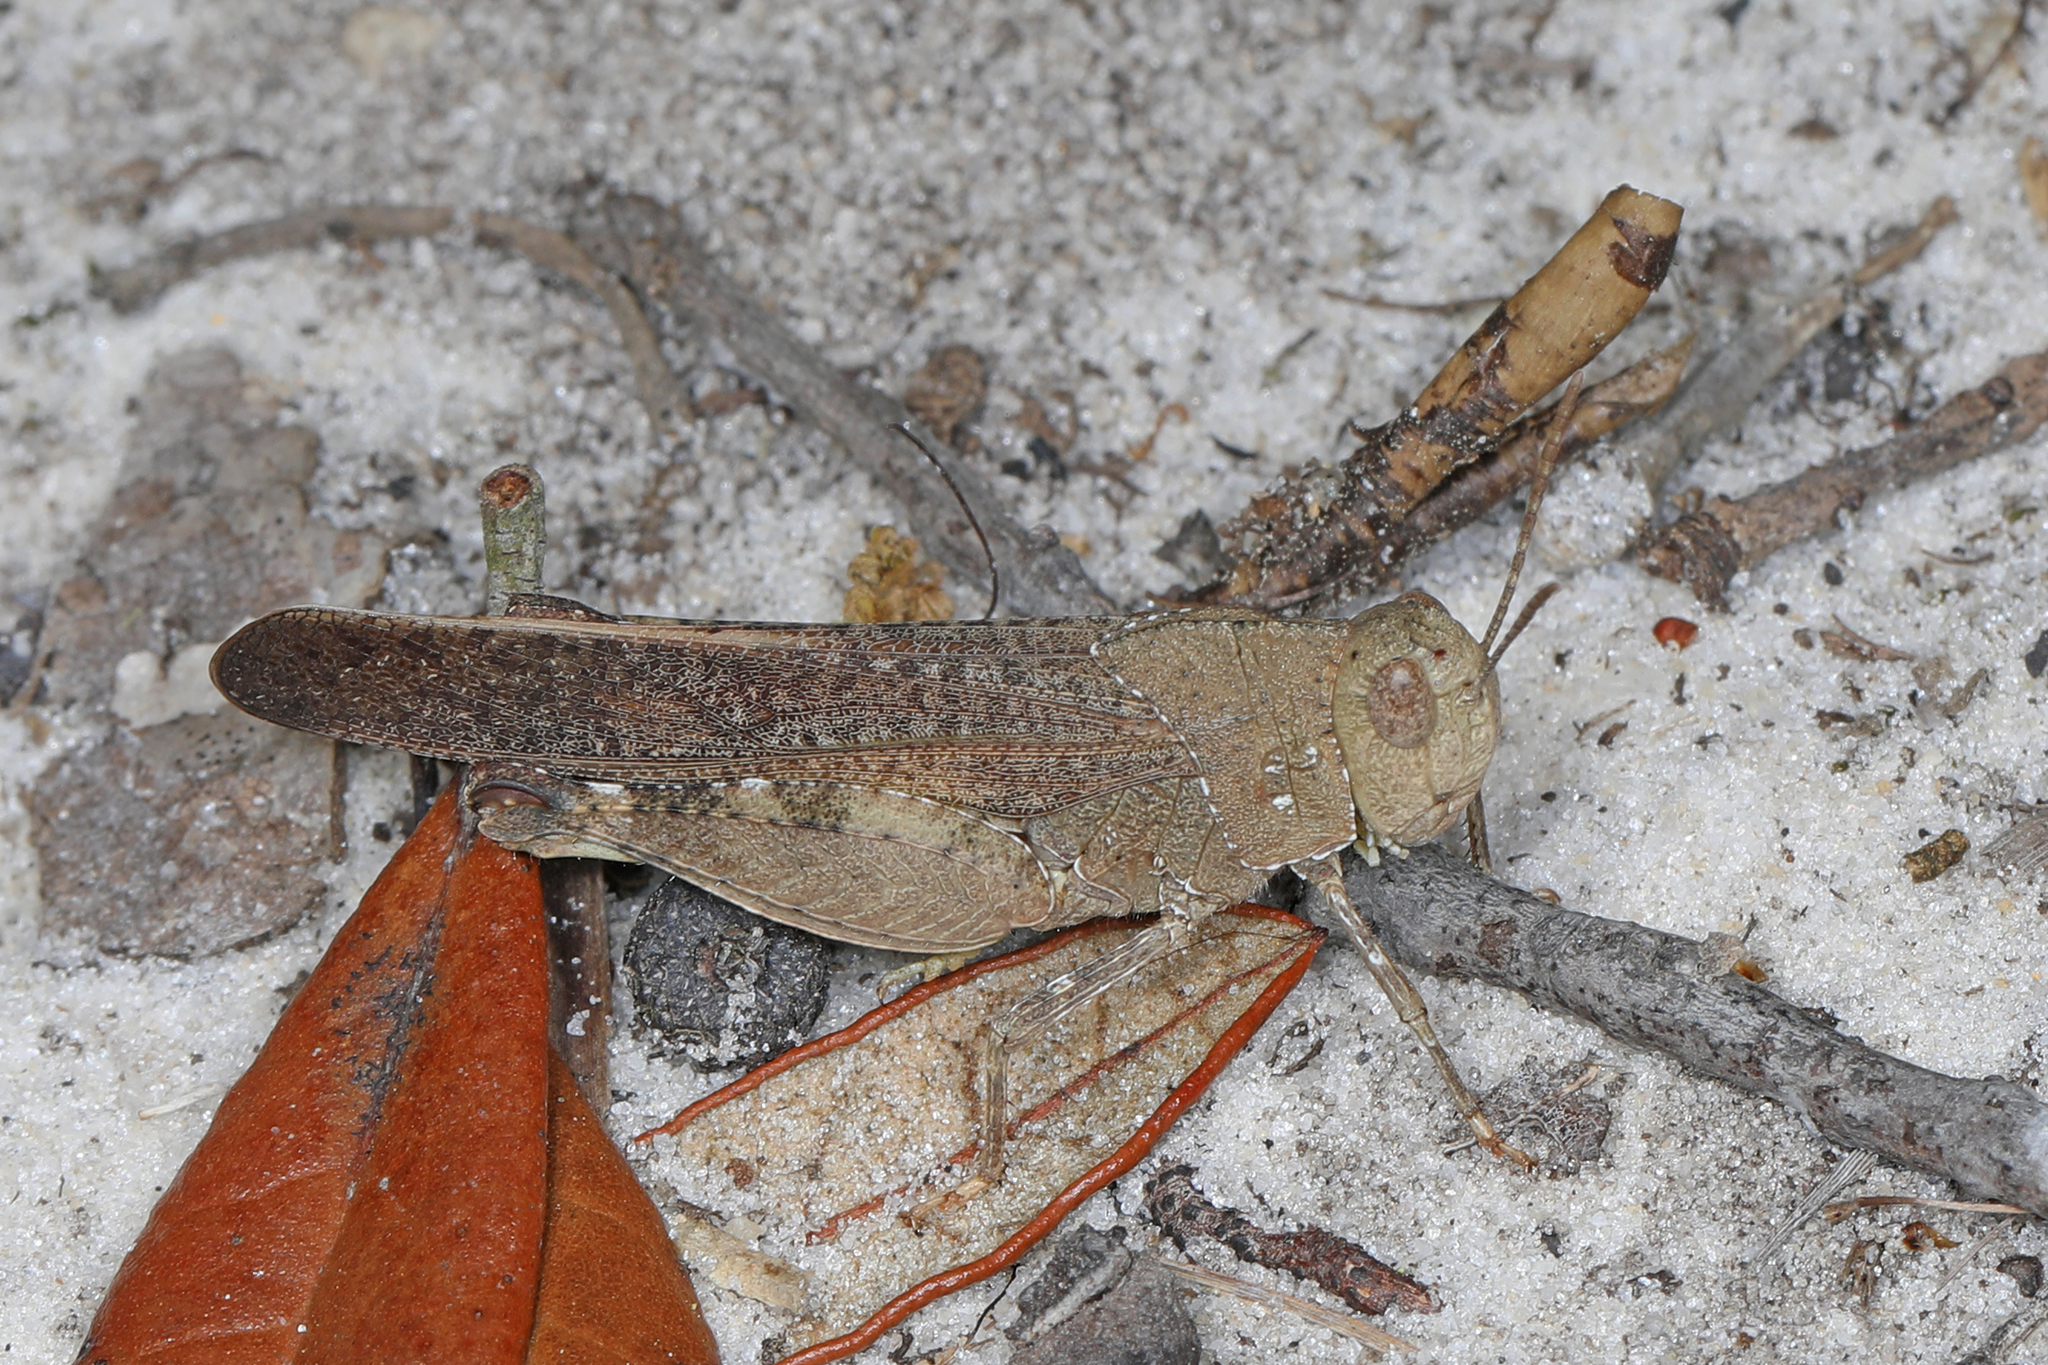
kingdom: Animalia
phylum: Arthropoda
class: Insecta
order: Orthoptera
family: Acrididae
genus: Arphia
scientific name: Arphia granulata
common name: Southern yellow-winged grasshopper
